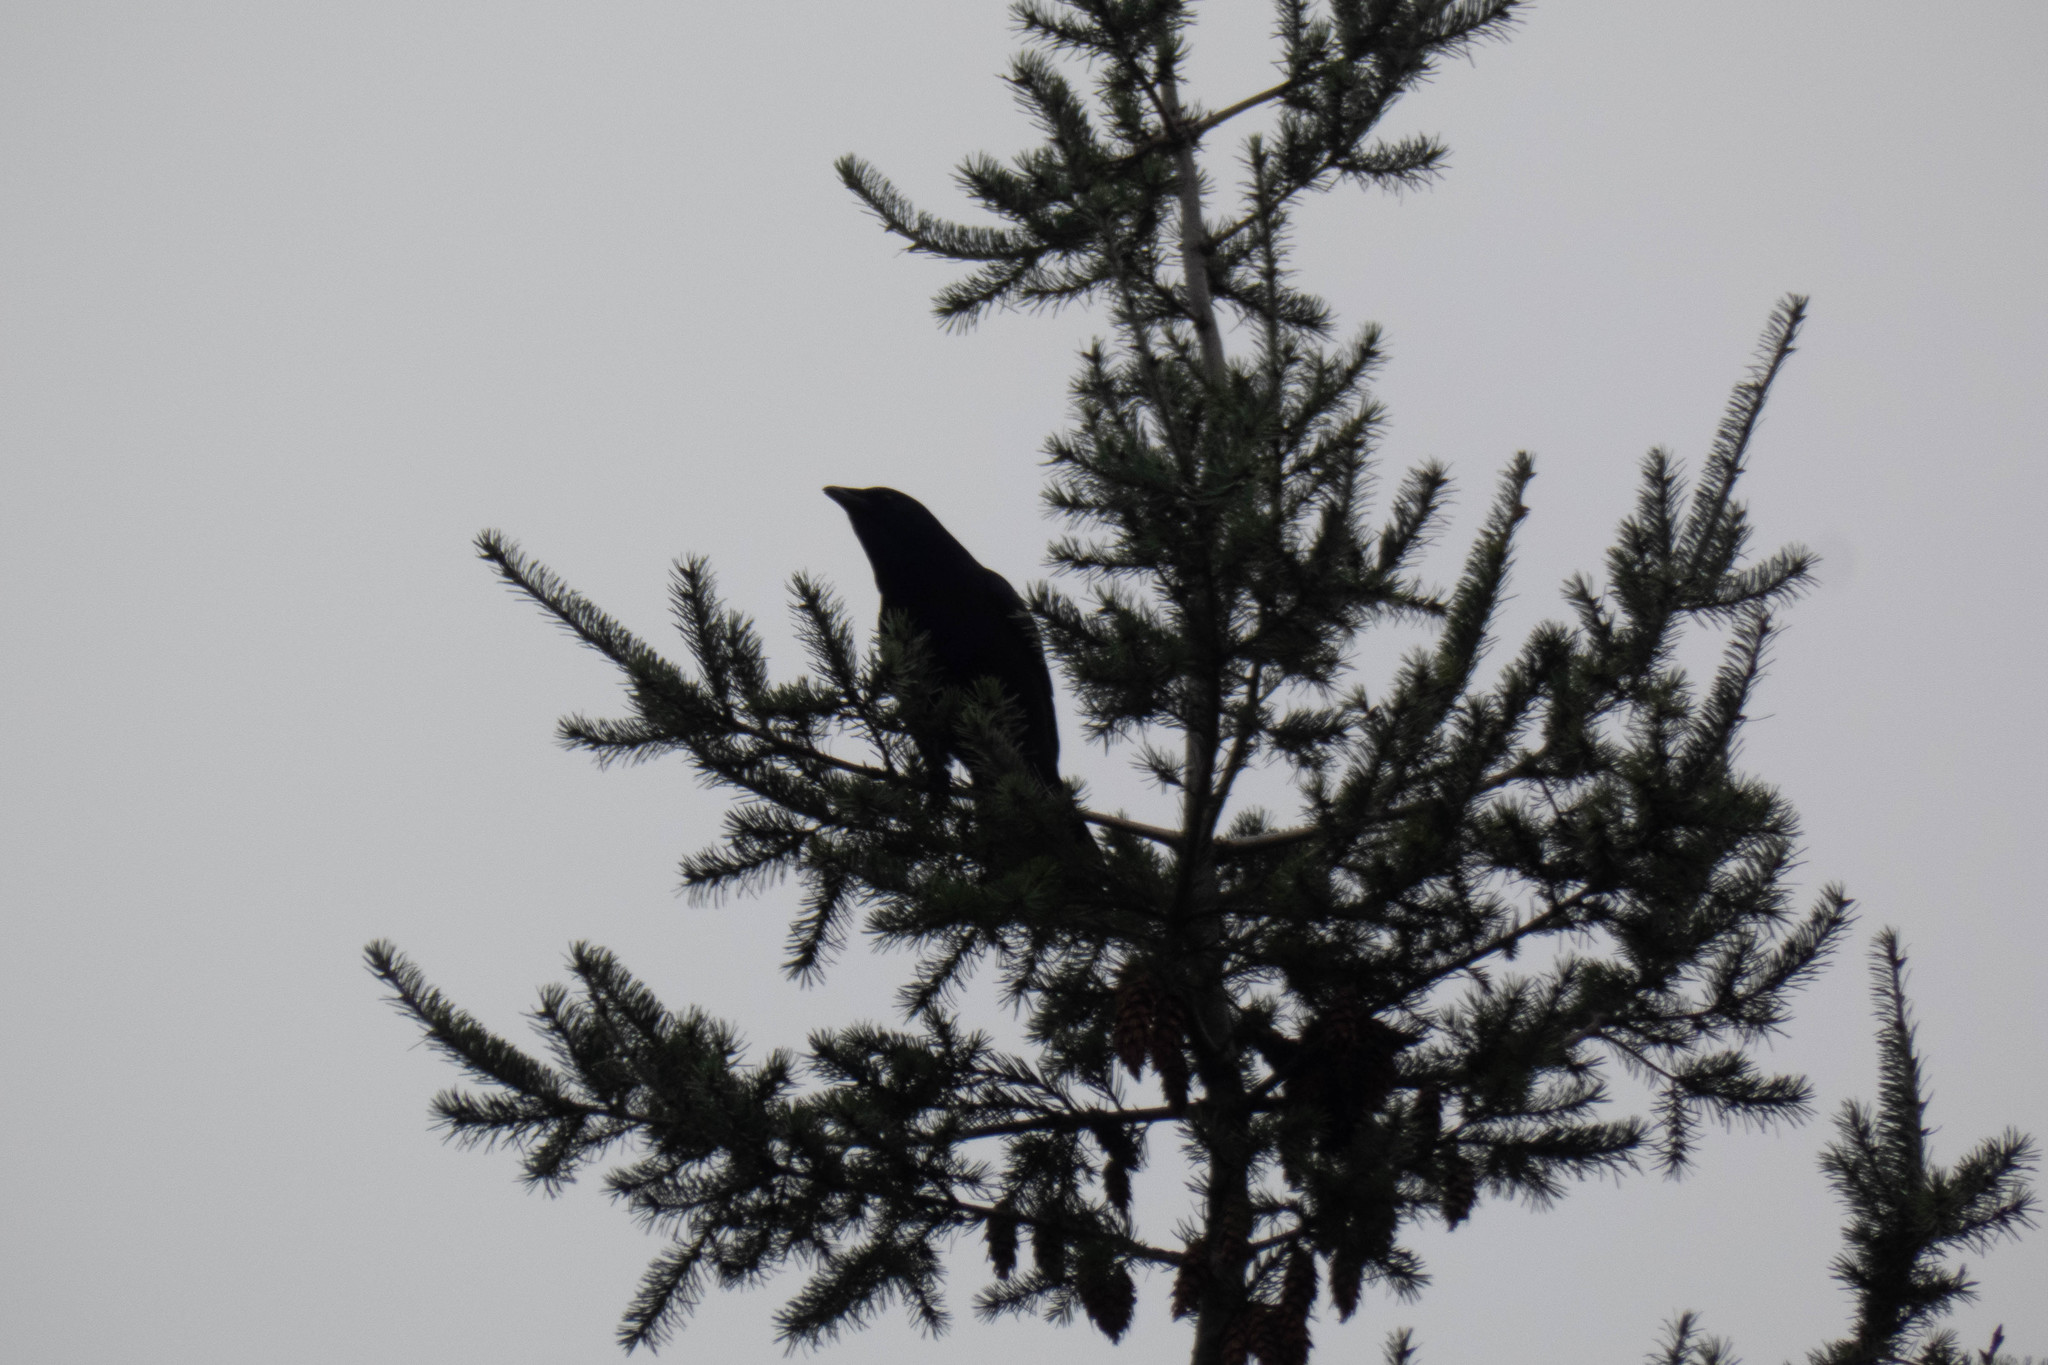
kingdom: Animalia
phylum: Chordata
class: Aves
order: Passeriformes
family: Corvidae
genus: Corvus
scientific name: Corvus brachyrhynchos
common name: American crow
